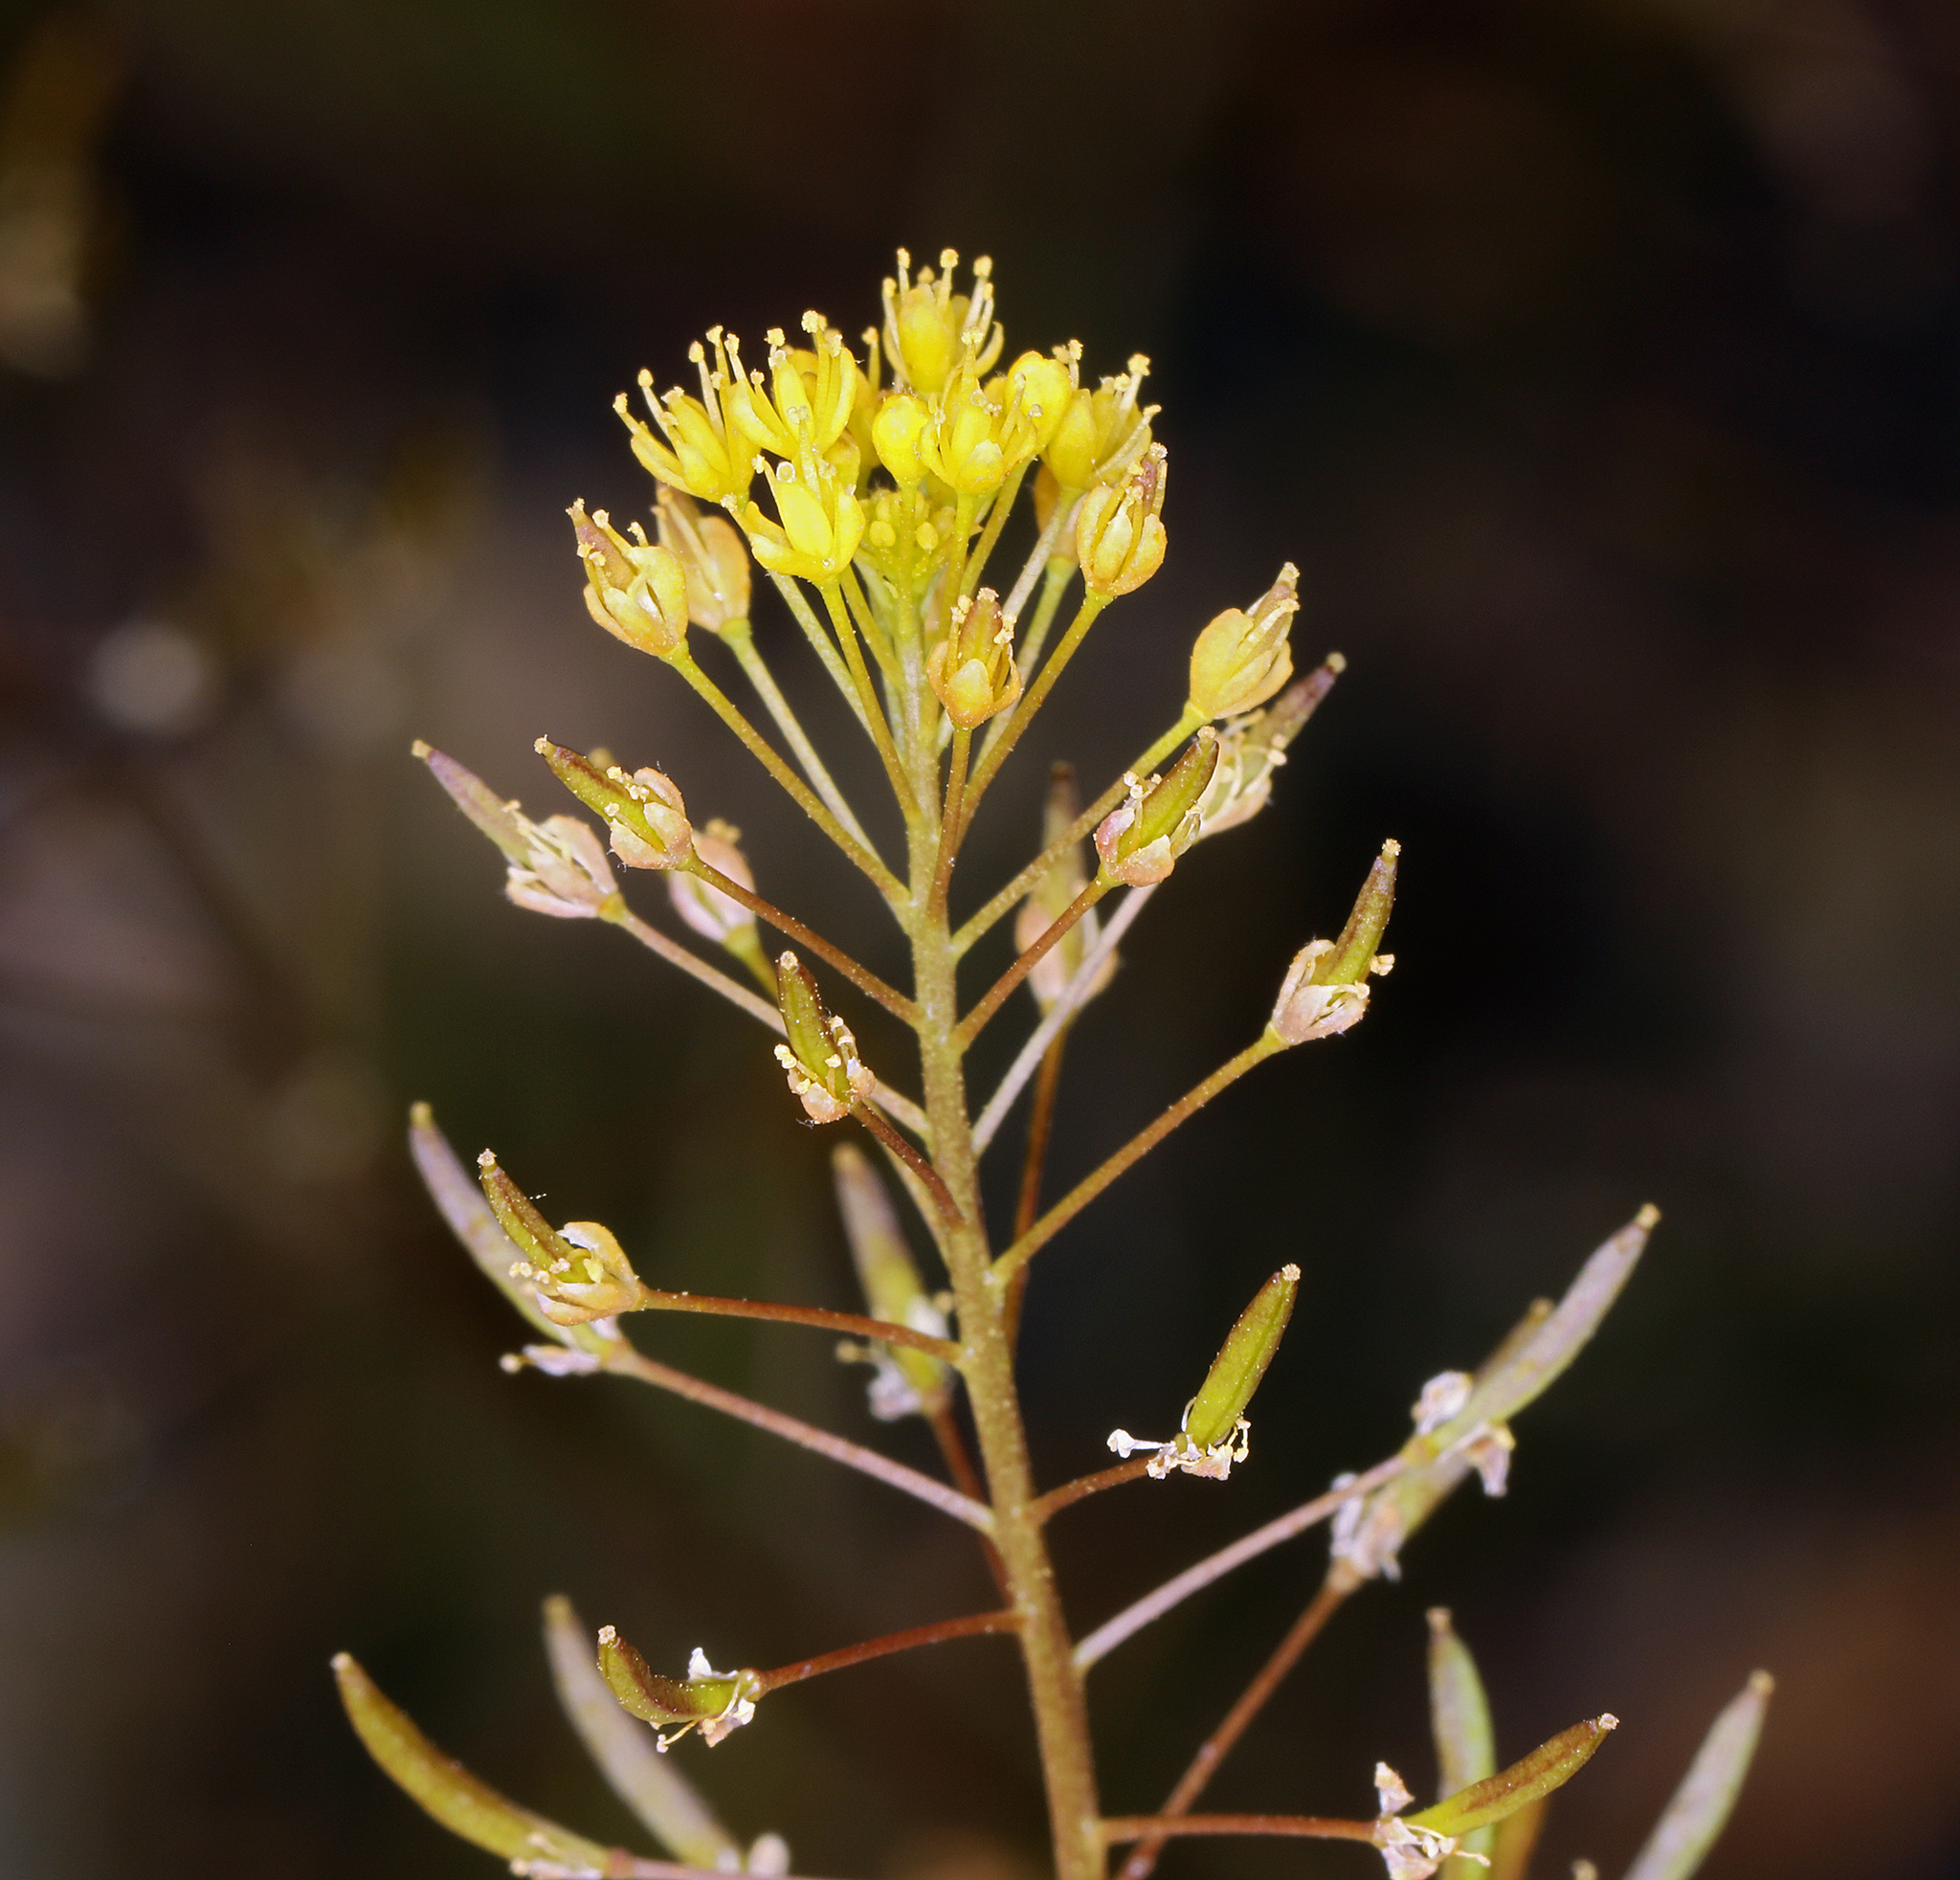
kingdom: Plantae
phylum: Tracheophyta
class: Magnoliopsida
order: Brassicales
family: Brassicaceae
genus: Descurainia
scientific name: Descurainia pinnata
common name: Western tansy mustard
